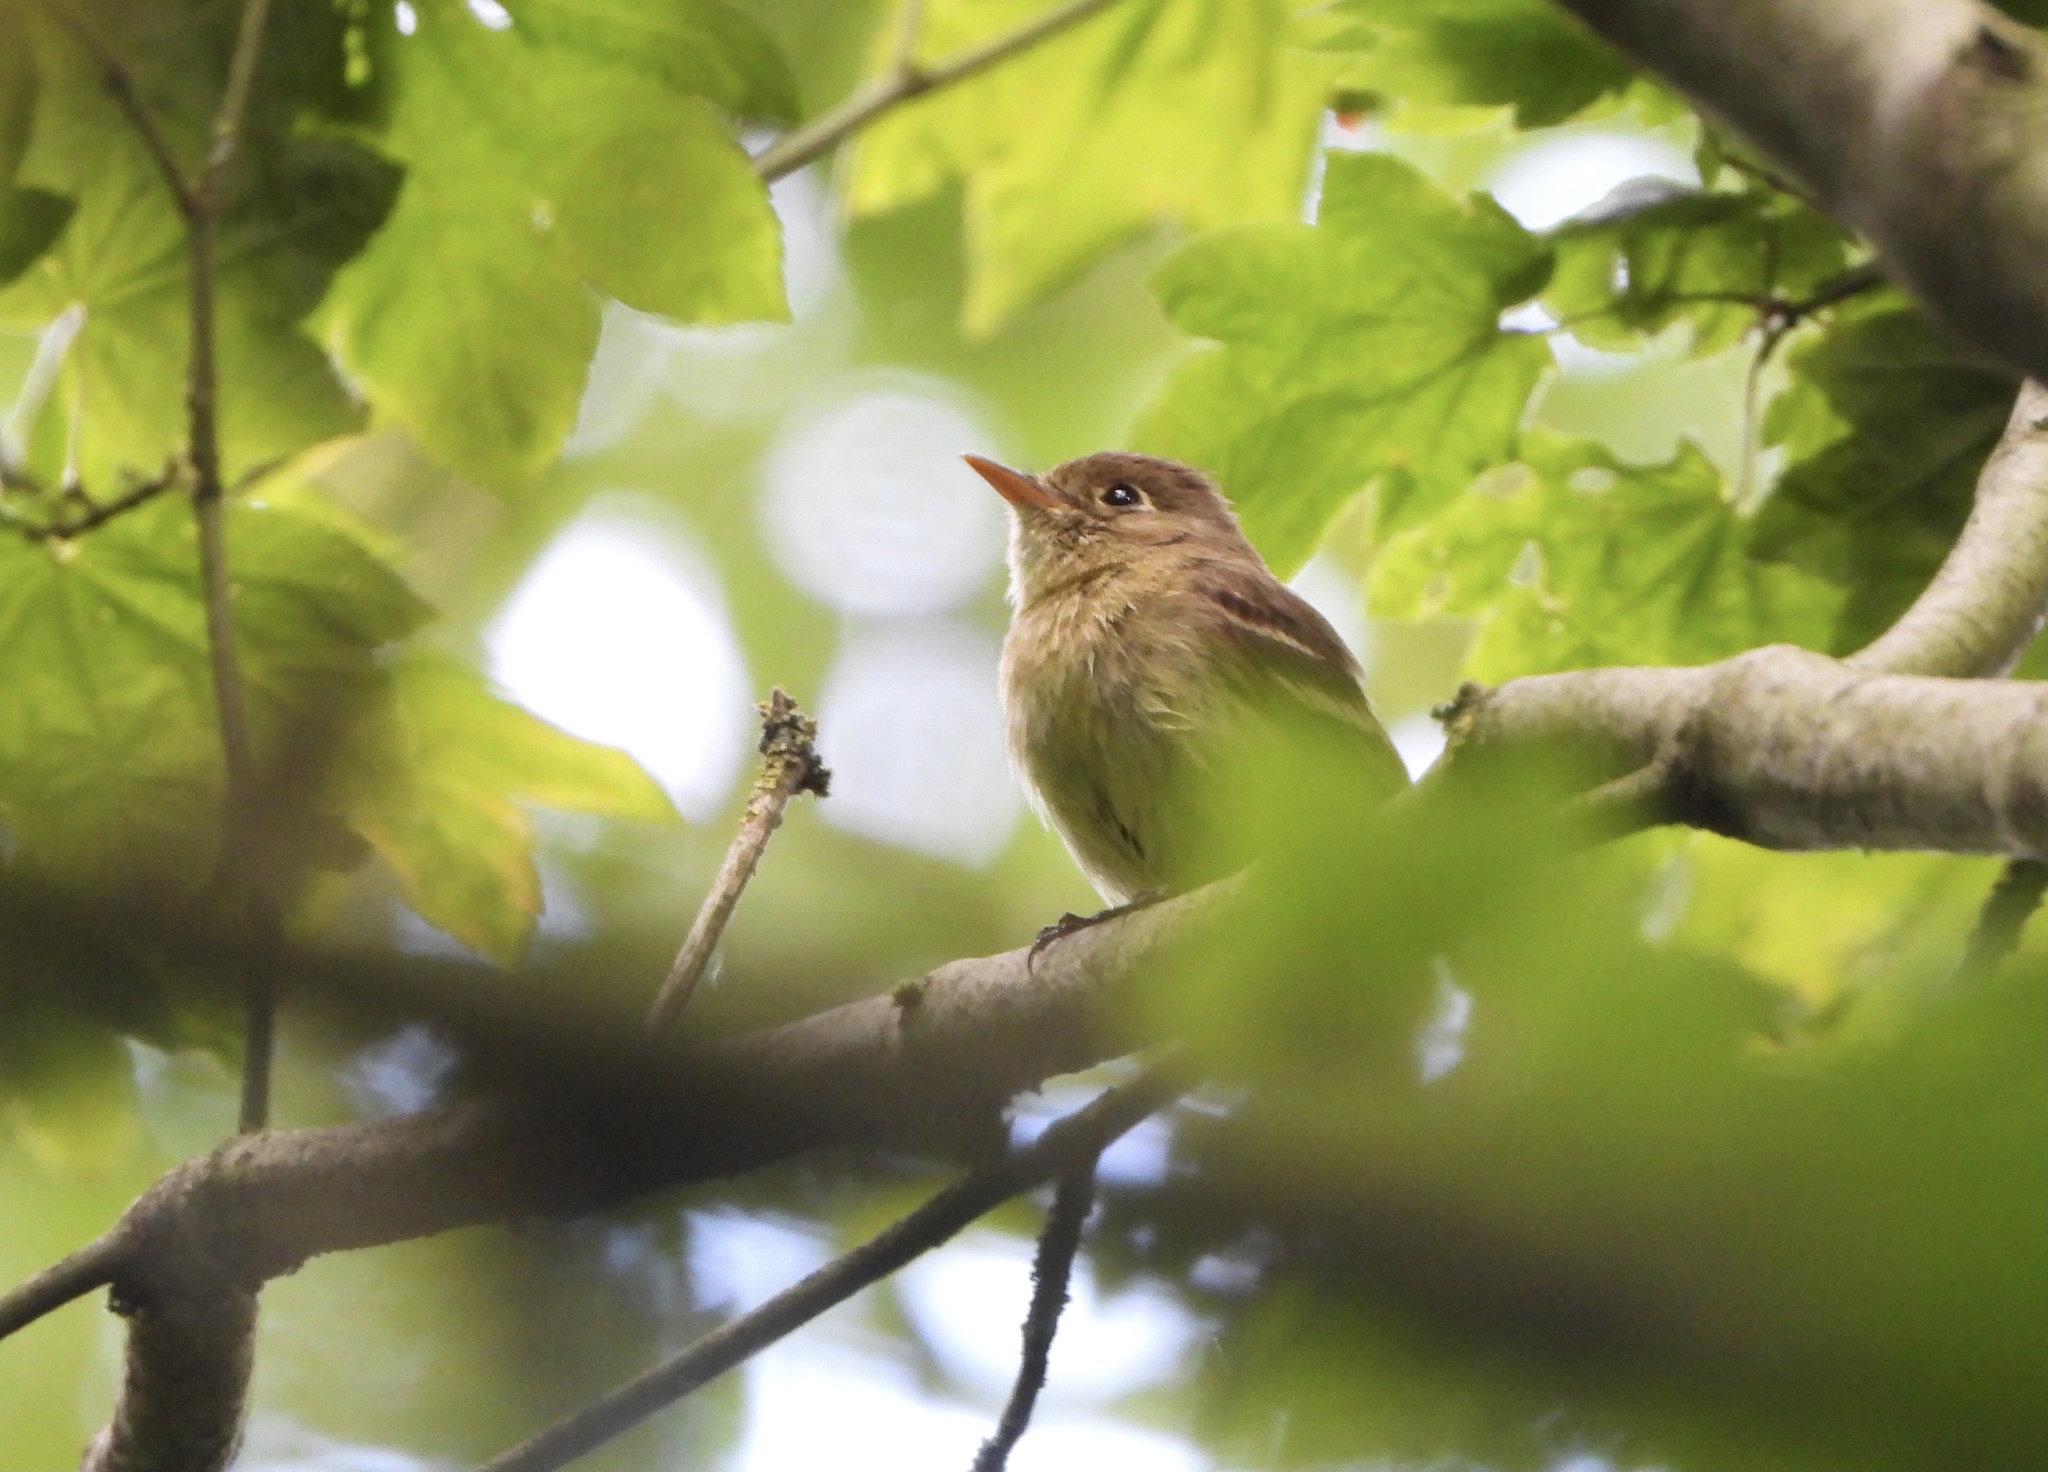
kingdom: Animalia
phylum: Chordata
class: Aves
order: Passeriformes
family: Tyrannidae
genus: Empidonax
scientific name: Empidonax difficilis
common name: Pacific-slope flycatcher
